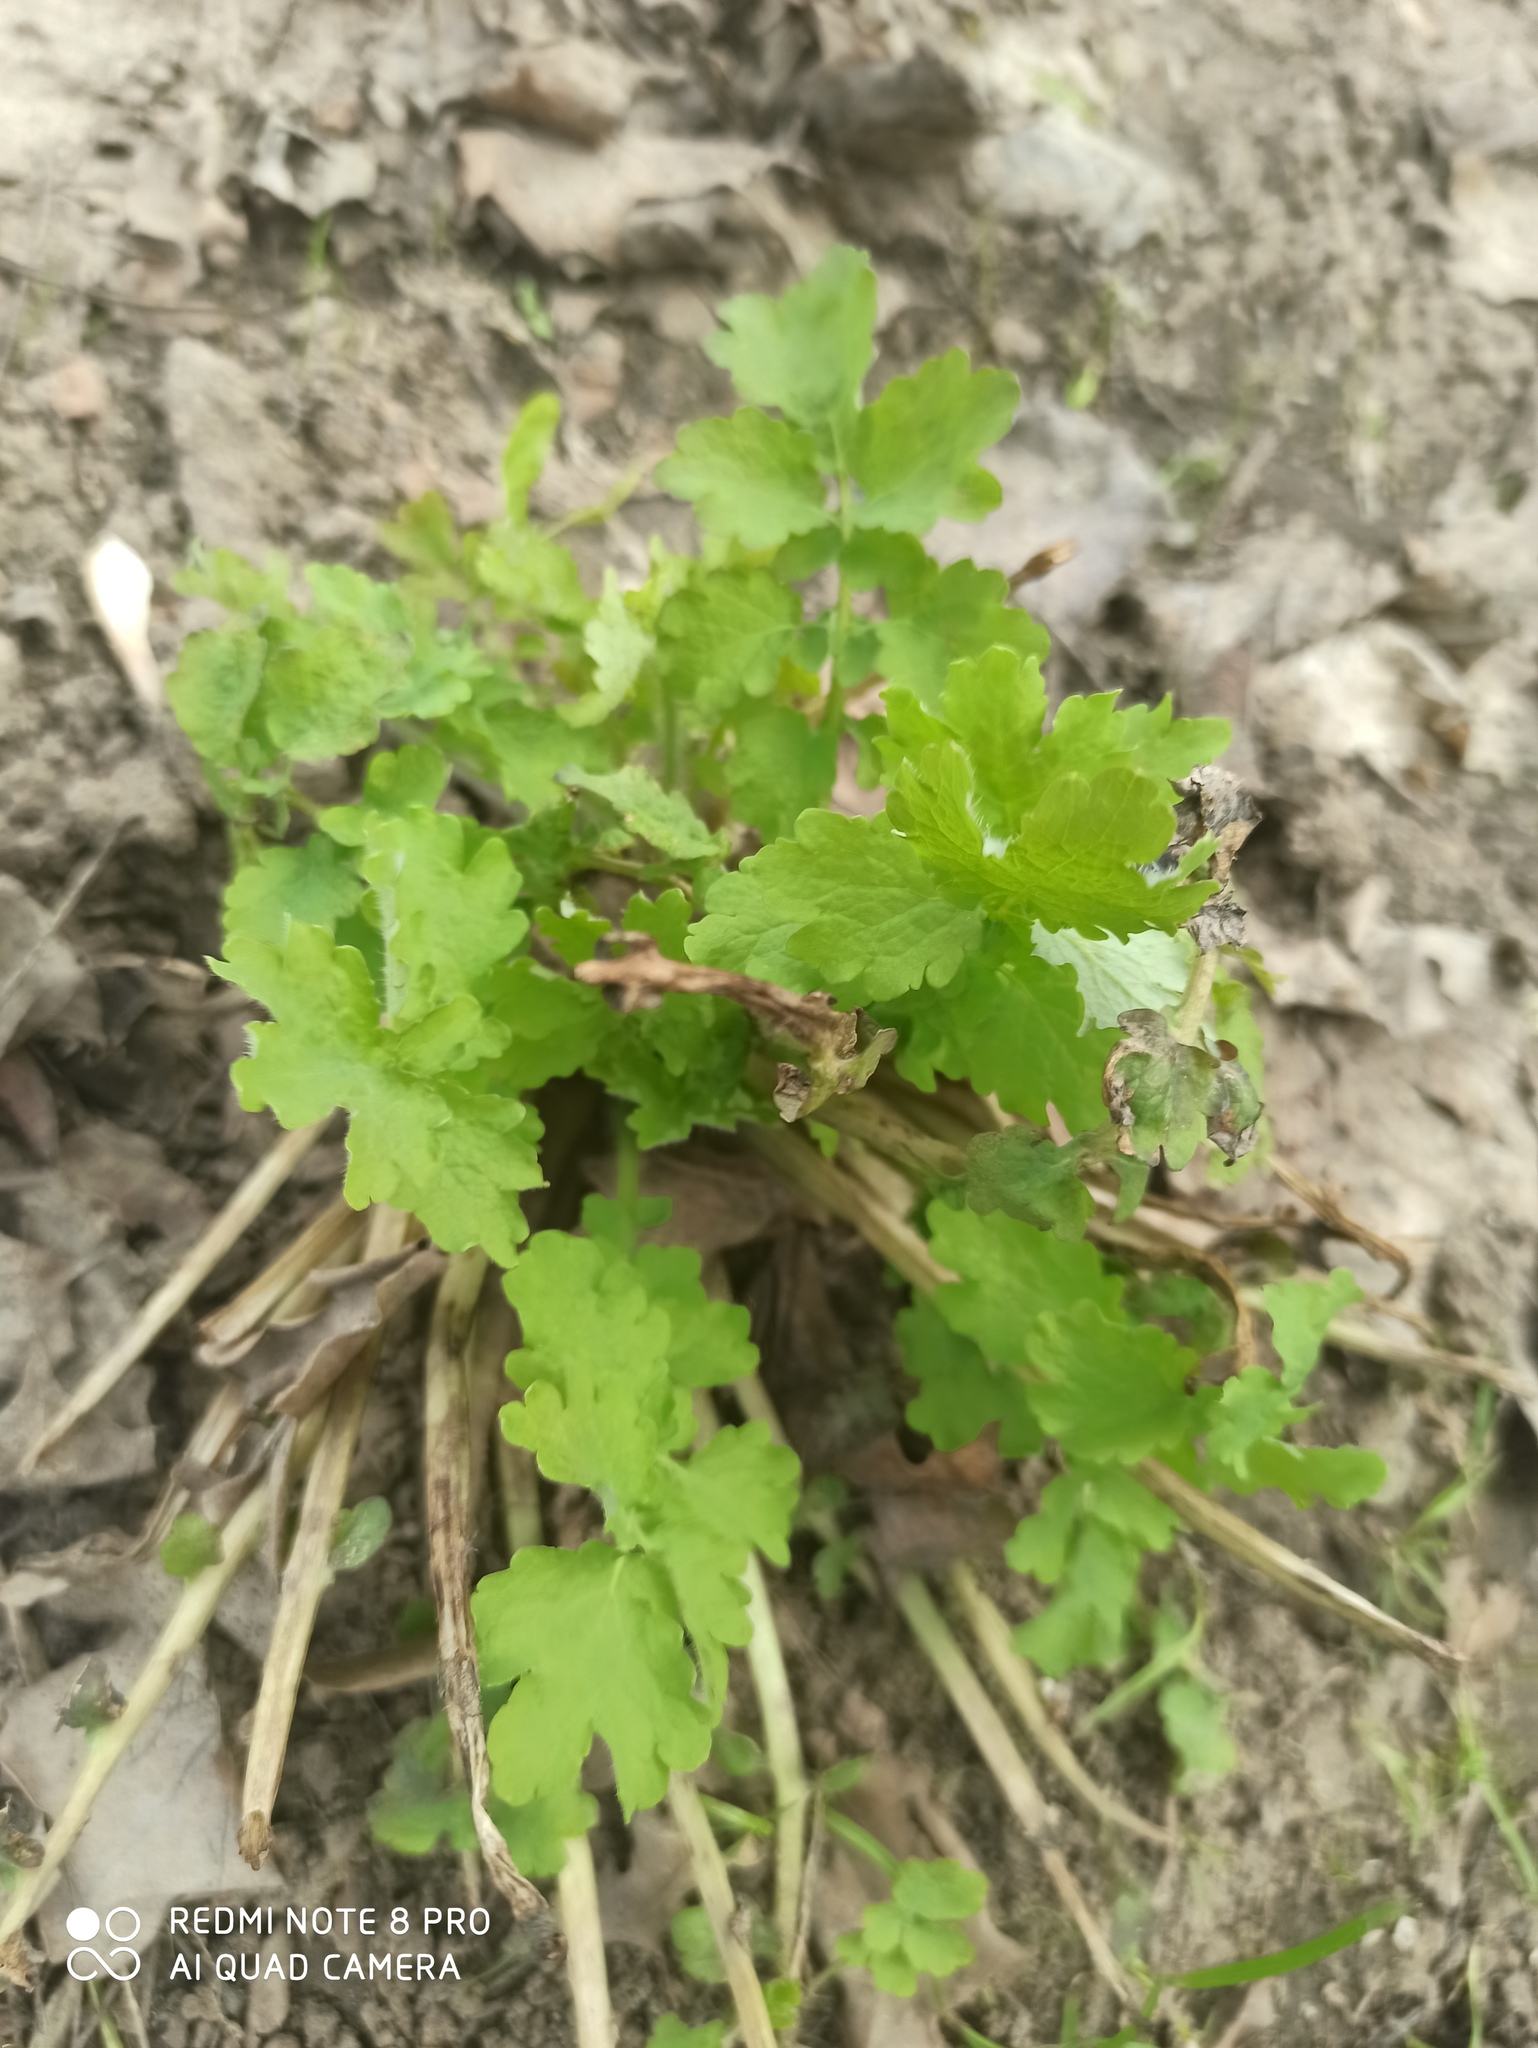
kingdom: Plantae
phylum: Tracheophyta
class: Magnoliopsida
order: Ranunculales
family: Papaveraceae
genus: Chelidonium
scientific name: Chelidonium majus
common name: Greater celandine
